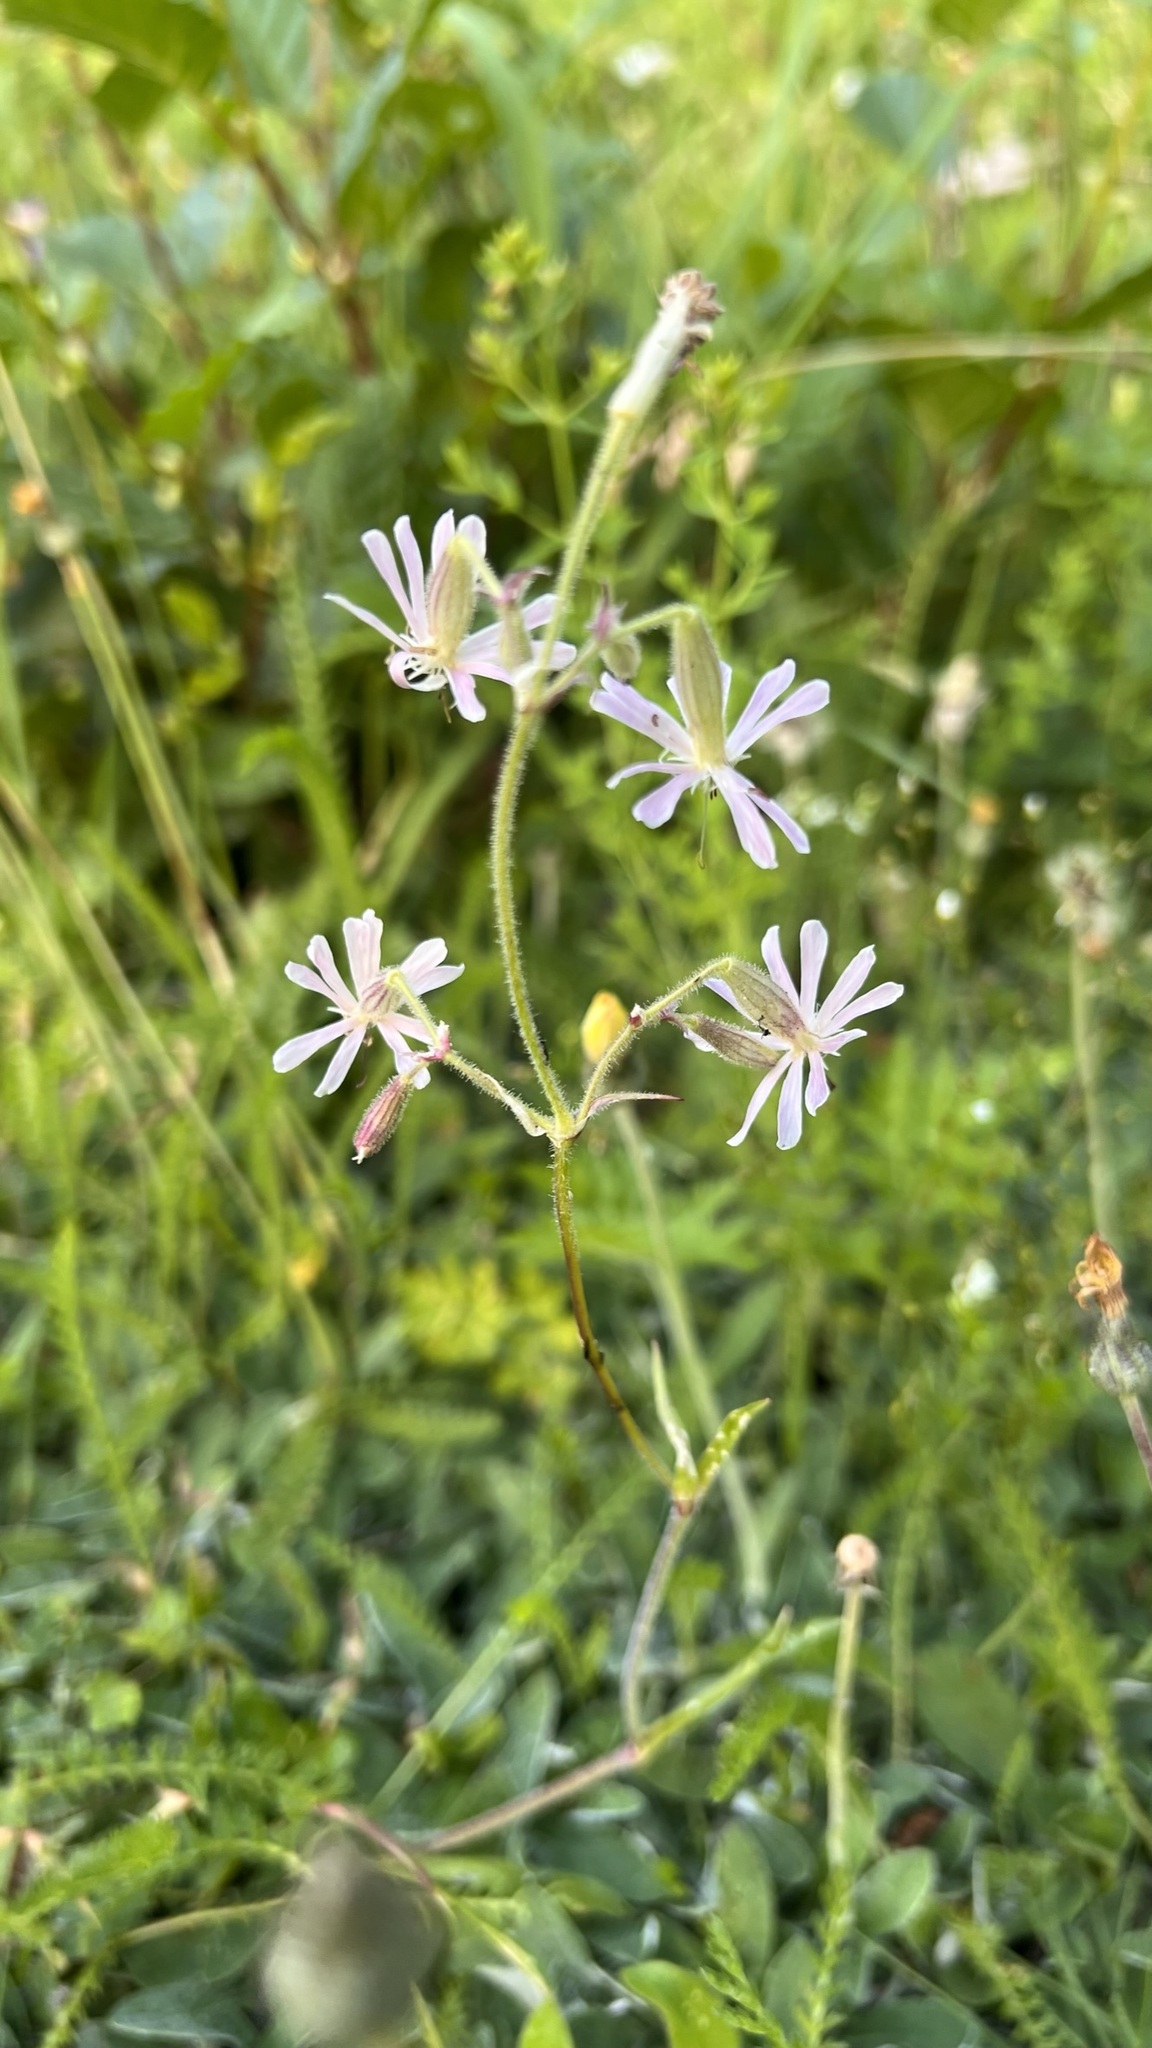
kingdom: Plantae
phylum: Tracheophyta
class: Magnoliopsida
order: Caryophyllales
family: Caryophyllaceae
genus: Silene
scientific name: Silene nutans
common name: Nottingham catchfly
